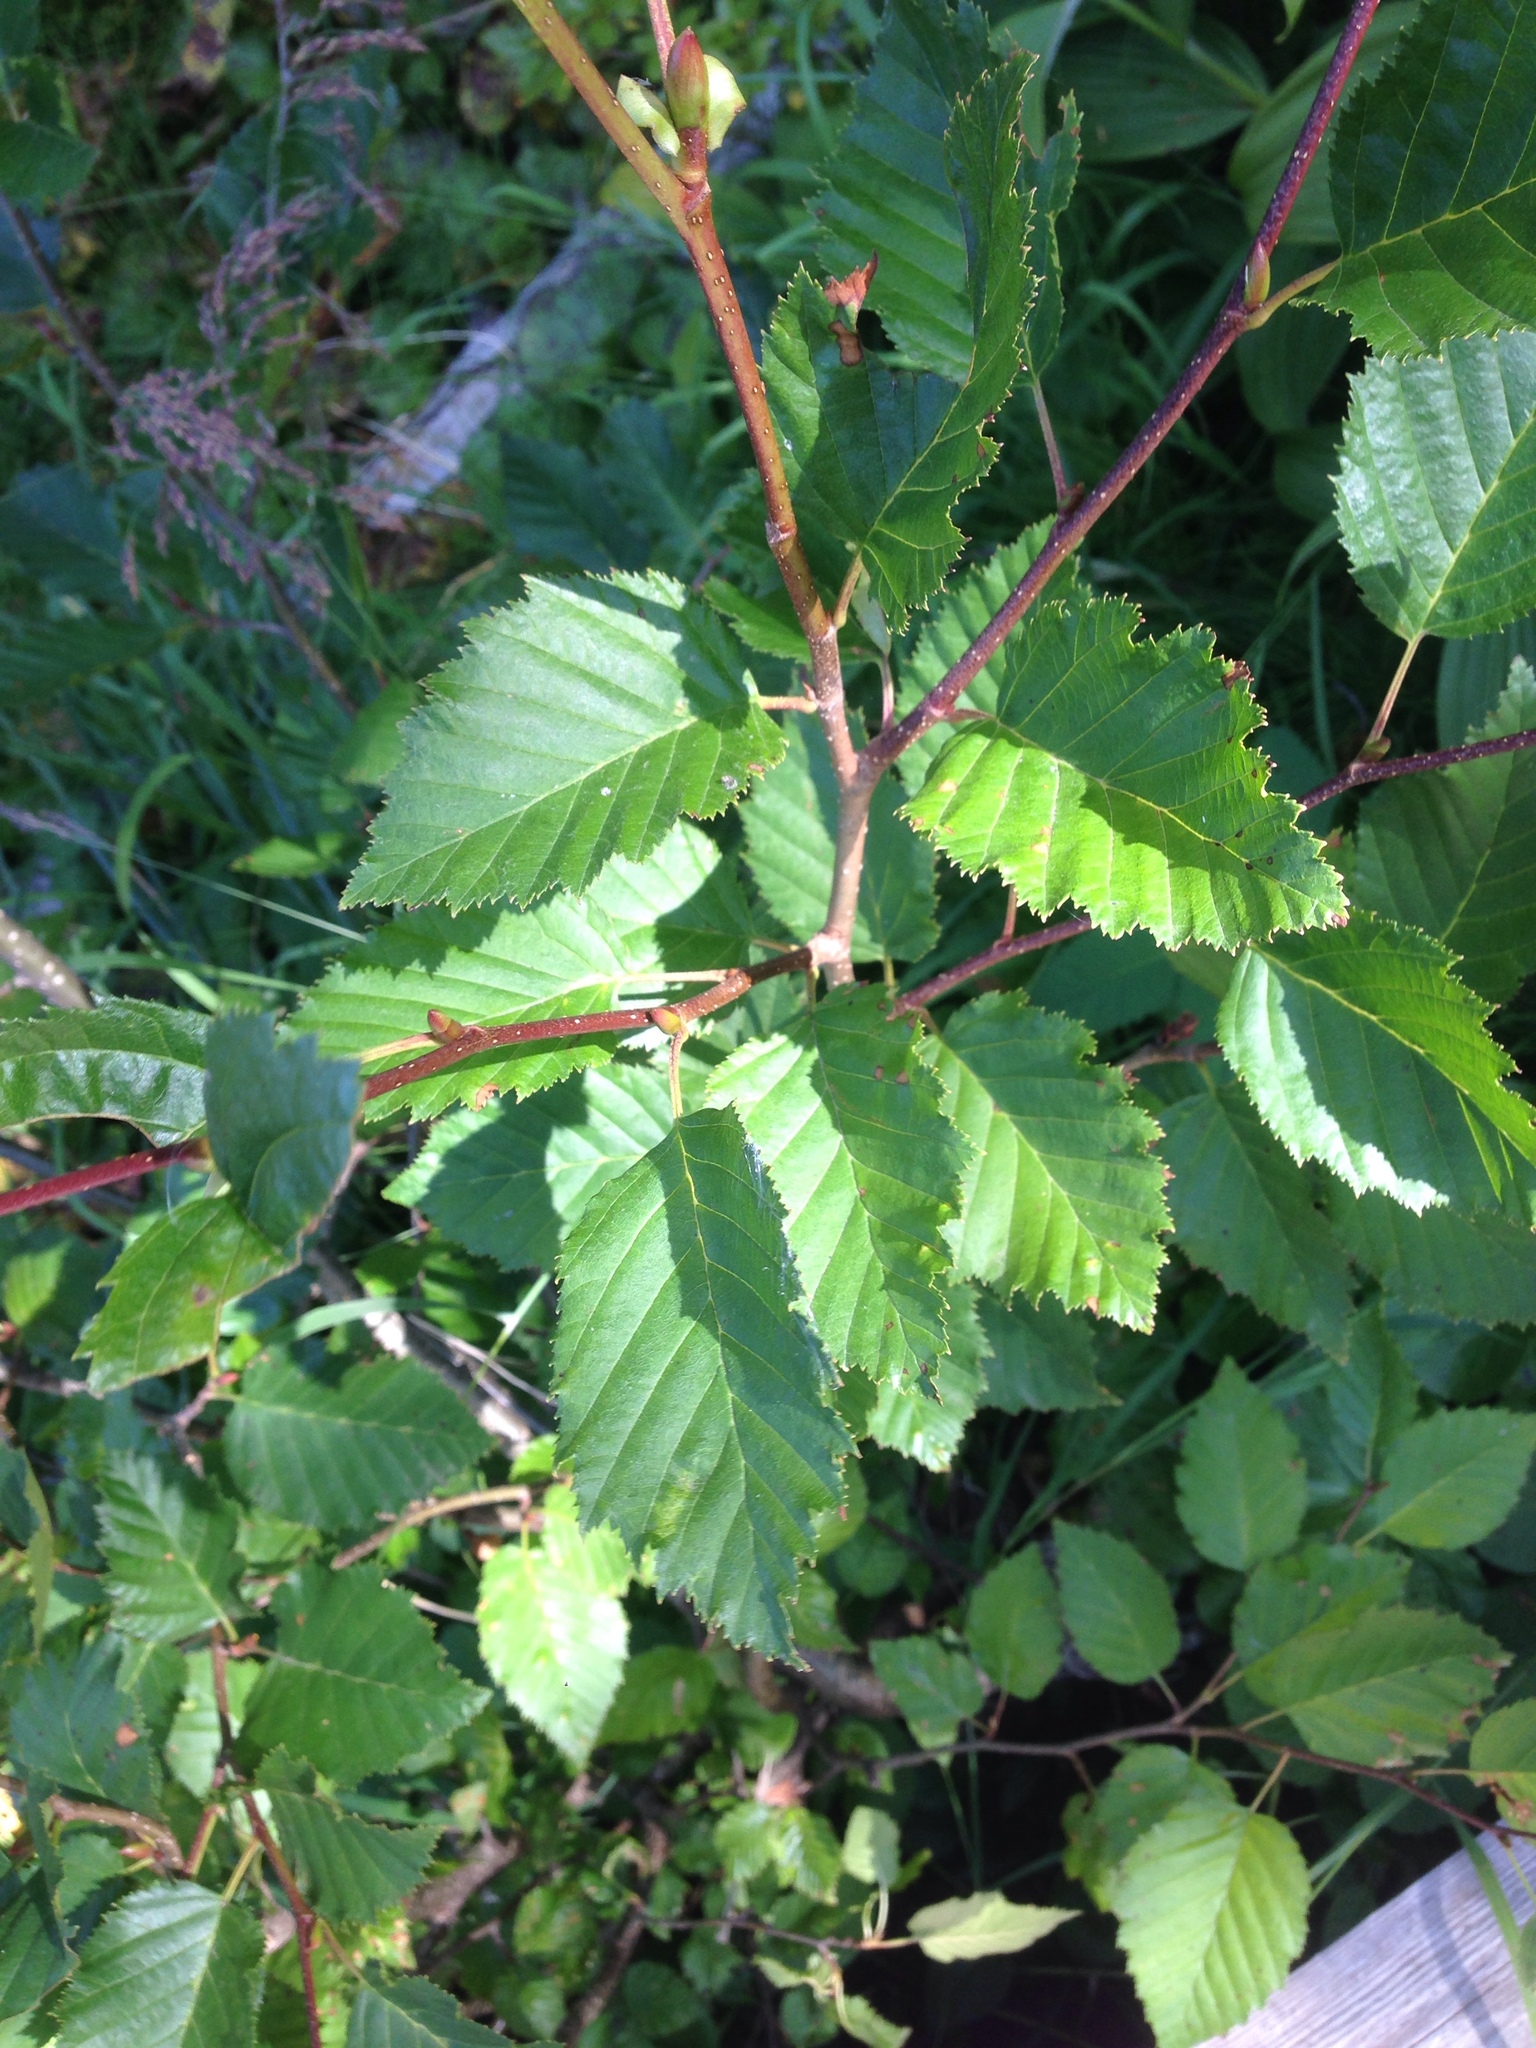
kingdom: Plantae
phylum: Tracheophyta
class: Magnoliopsida
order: Fagales
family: Betulaceae
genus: Alnus
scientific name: Alnus alnobetula
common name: Green alder
